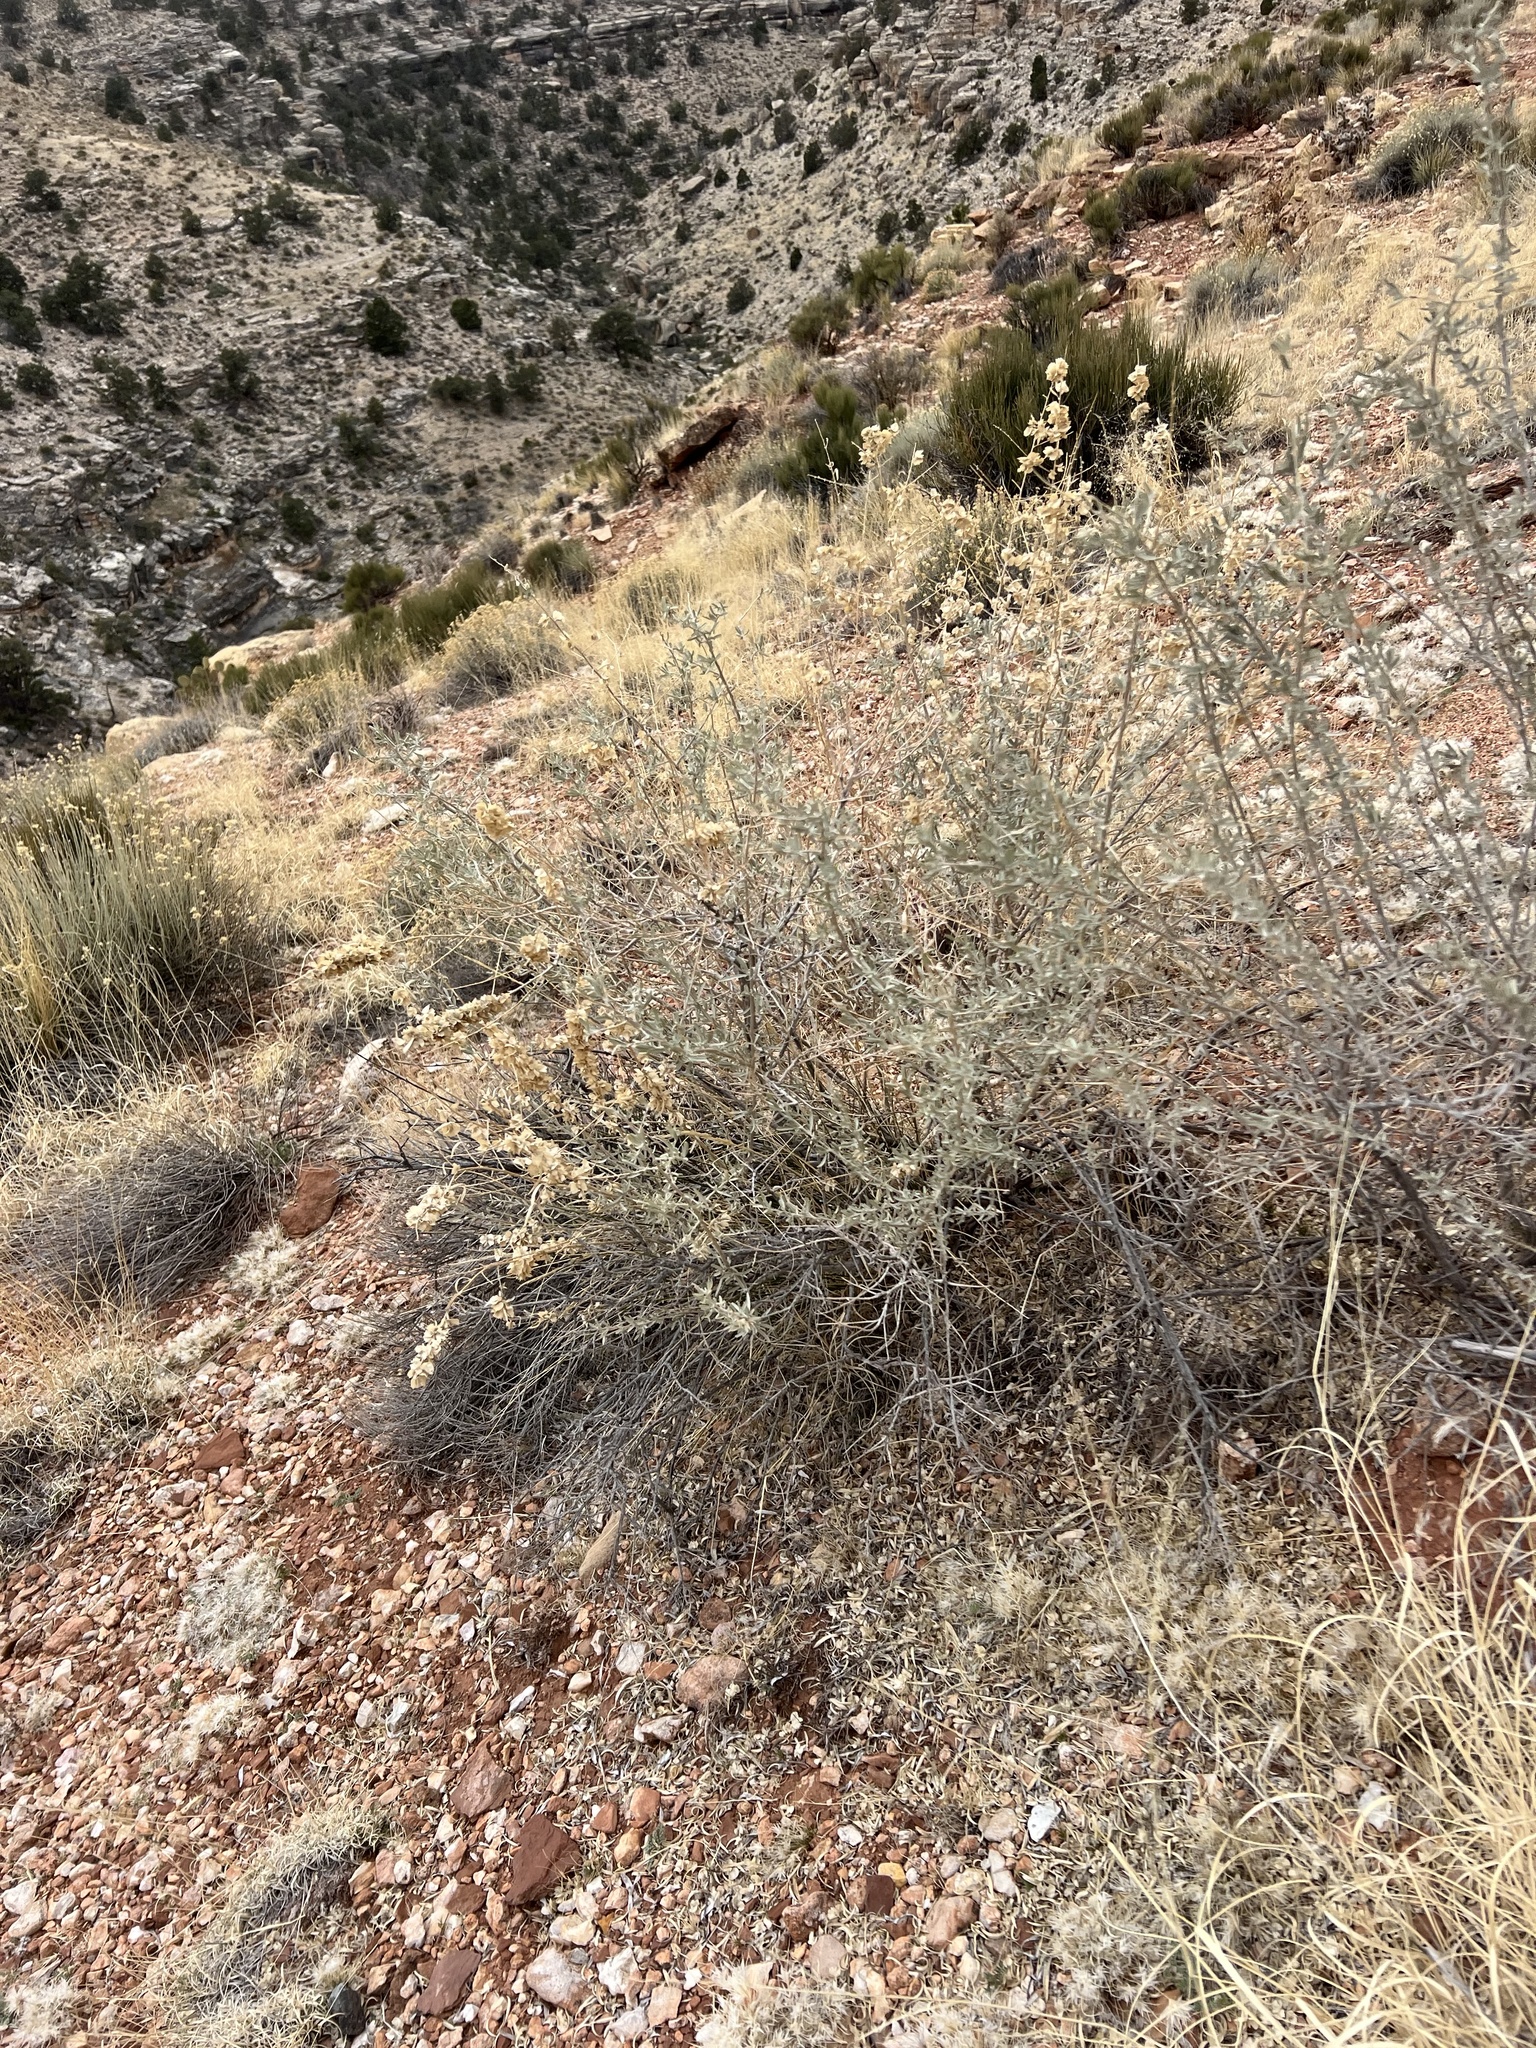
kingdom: Plantae
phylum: Tracheophyta
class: Magnoliopsida
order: Caryophyllales
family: Amaranthaceae
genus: Atriplex
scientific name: Atriplex canescens
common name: Four-wing saltbush
